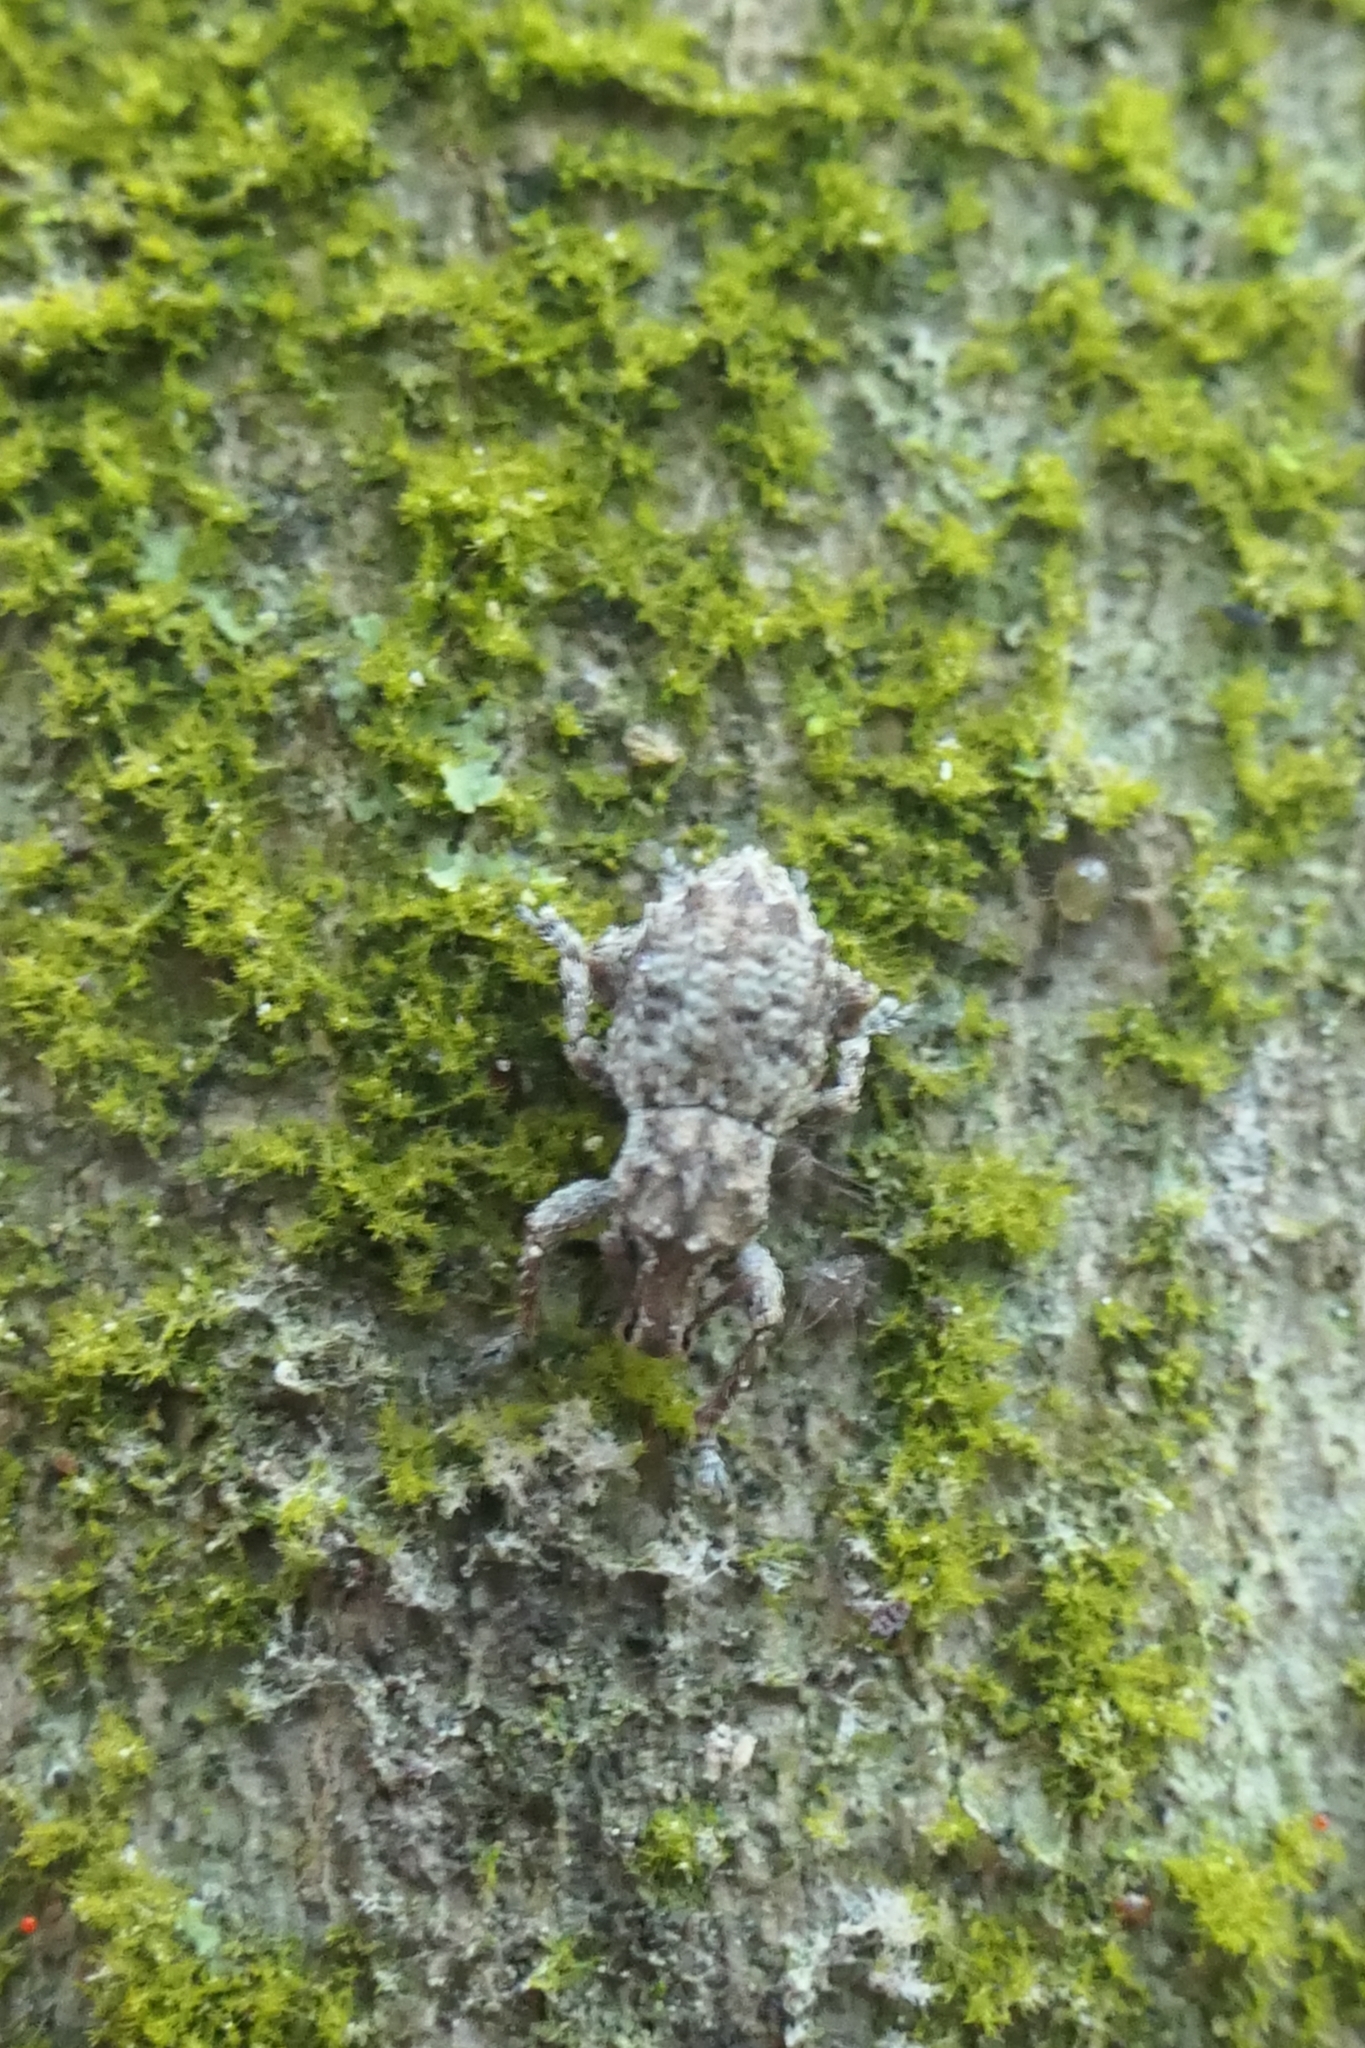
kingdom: Animalia
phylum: Arthropoda
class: Insecta
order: Coleoptera
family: Curculionidae
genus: Chalepistes
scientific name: Chalepistes asperatus
